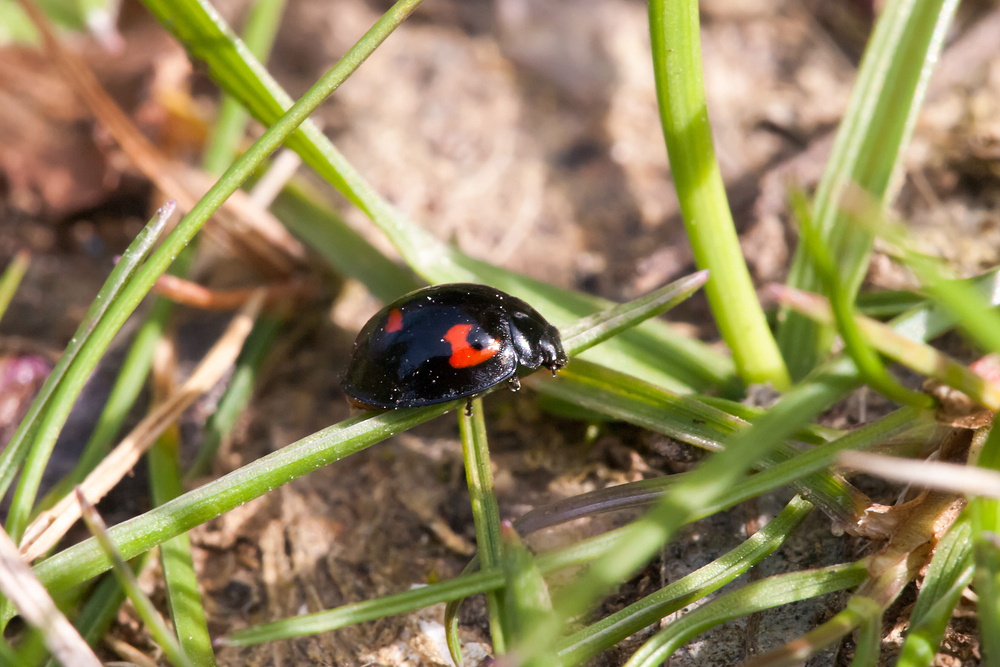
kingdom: Animalia
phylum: Arthropoda
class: Insecta
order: Coleoptera
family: Coccinellidae
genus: Brumus
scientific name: Brumus quadripustulatus
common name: Ladybird beetle
